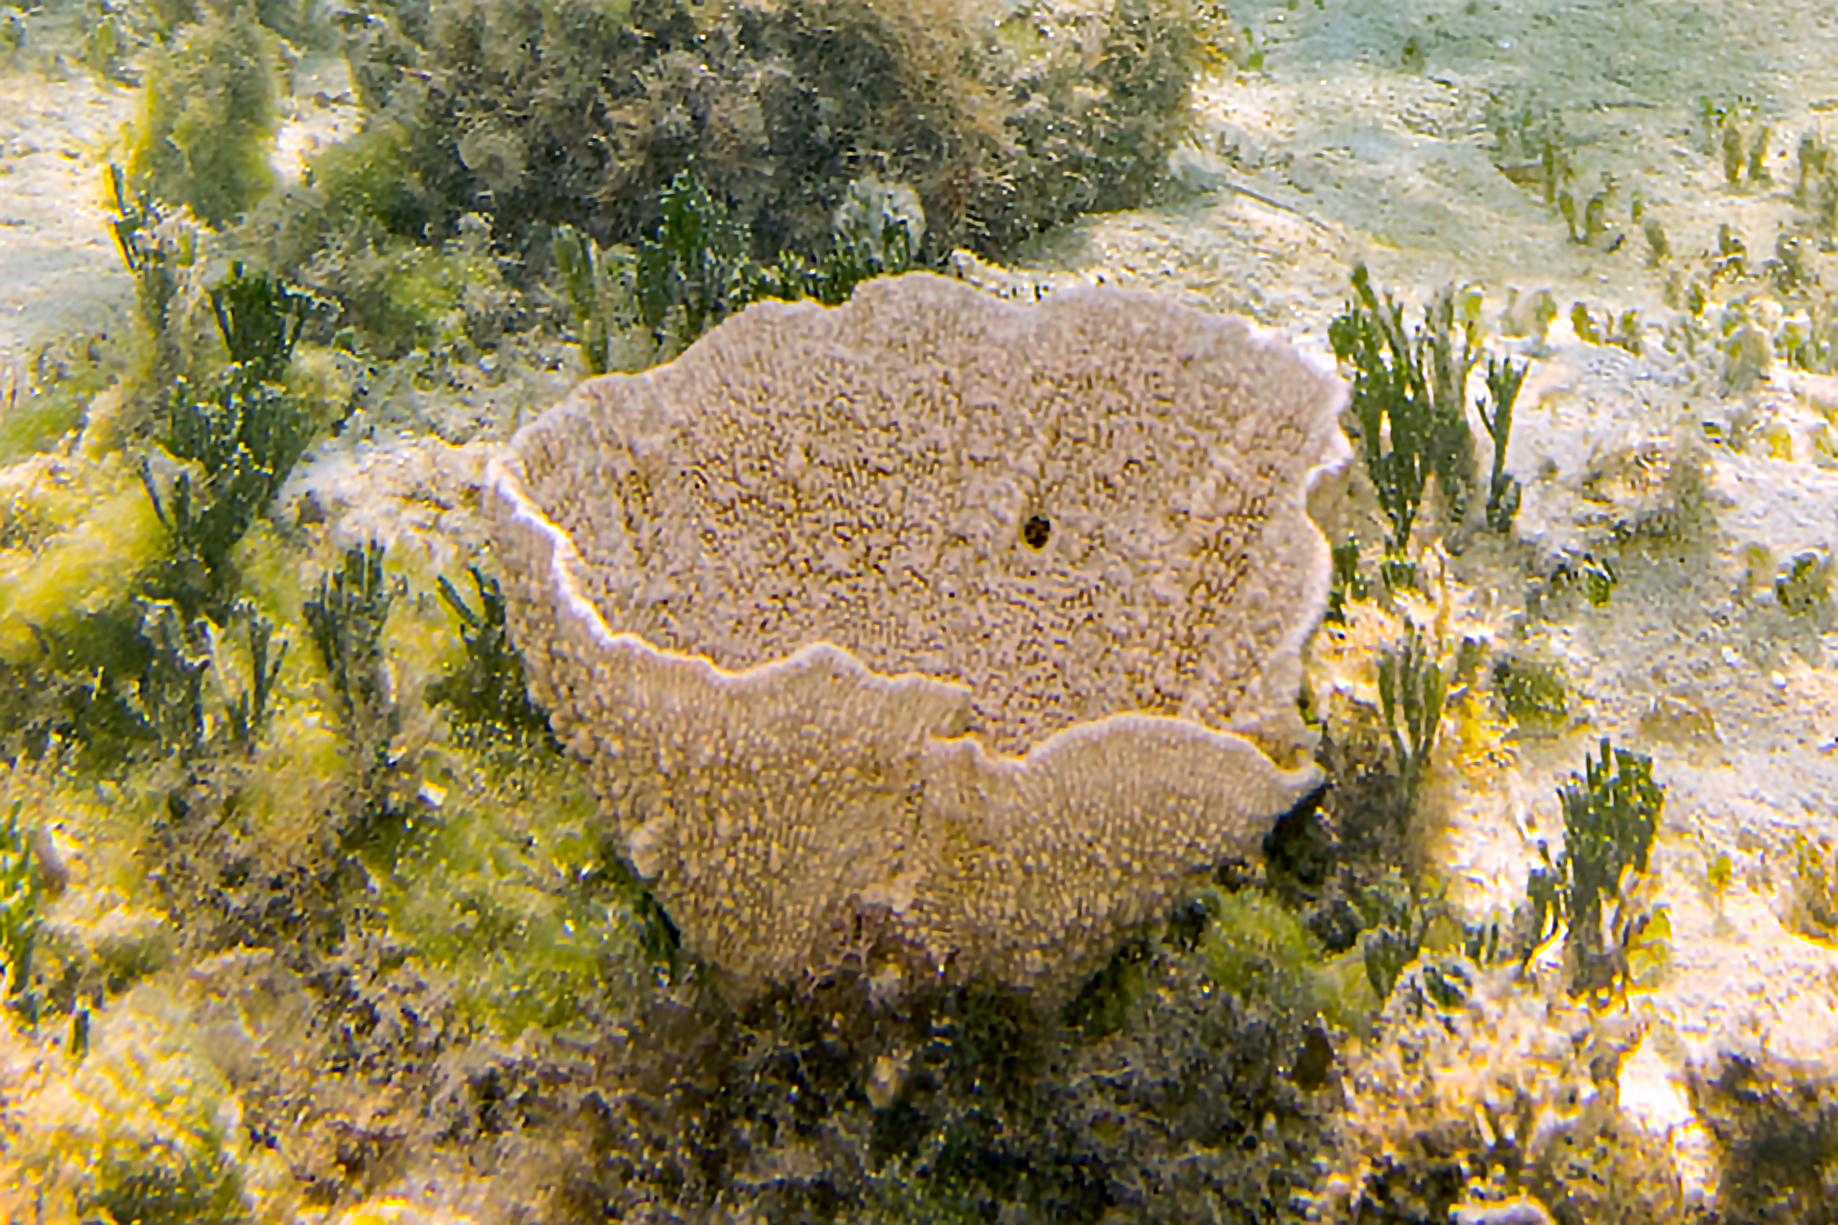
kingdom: Animalia
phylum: Porifera
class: Demospongiae
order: Dictyoceratida
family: Thorectidae
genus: Phyllospongia
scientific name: Phyllospongia foliascens
